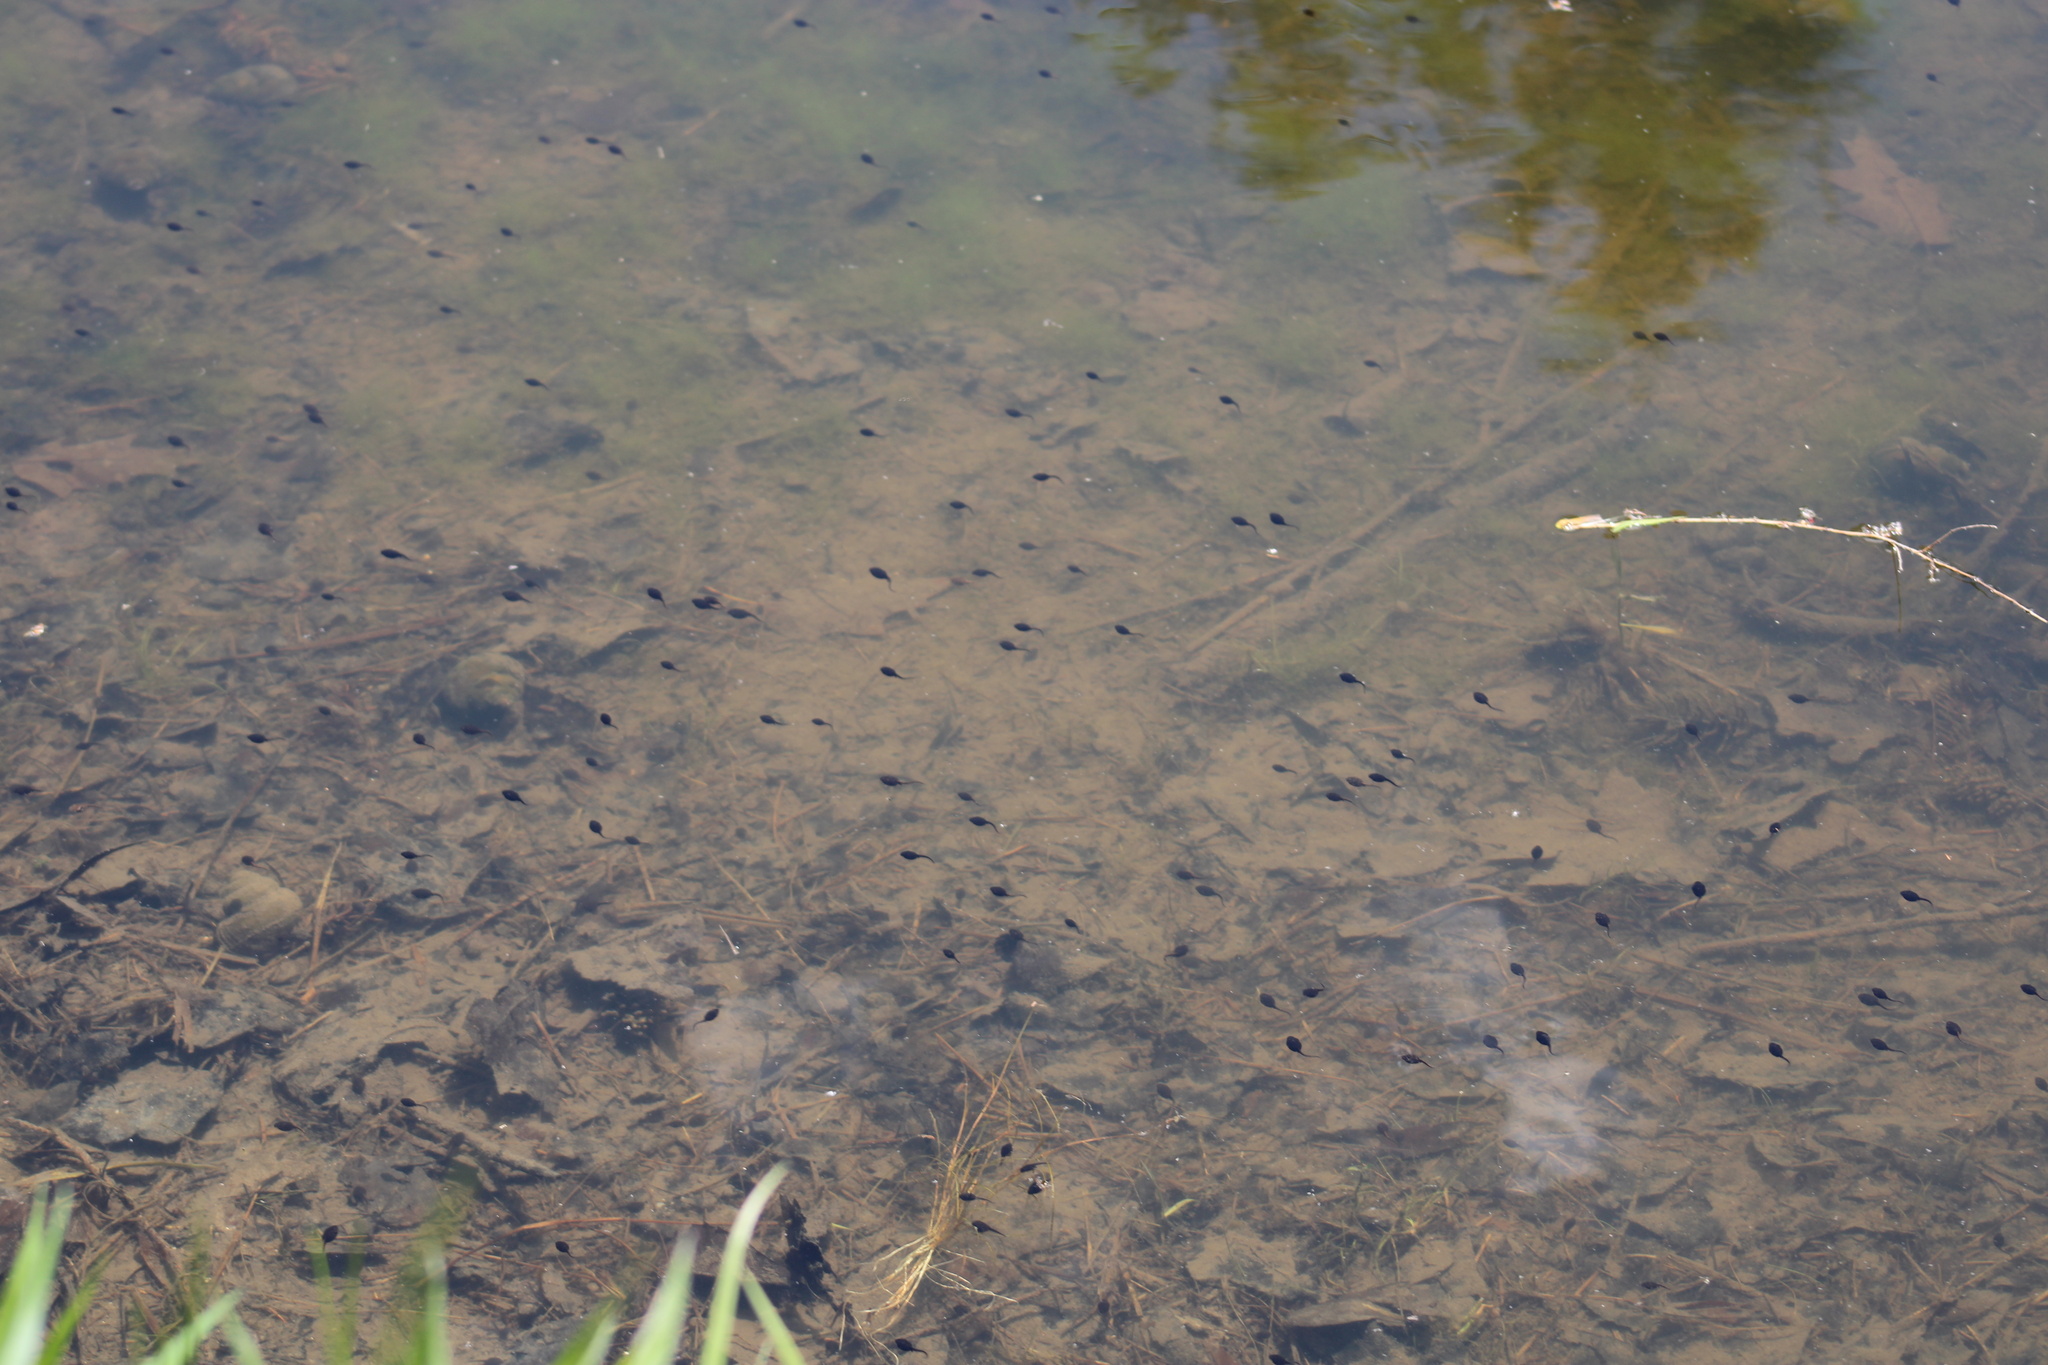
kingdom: Animalia
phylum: Chordata
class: Amphibia
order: Anura
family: Bufonidae
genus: Anaxyrus
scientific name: Anaxyrus americanus
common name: American toad
